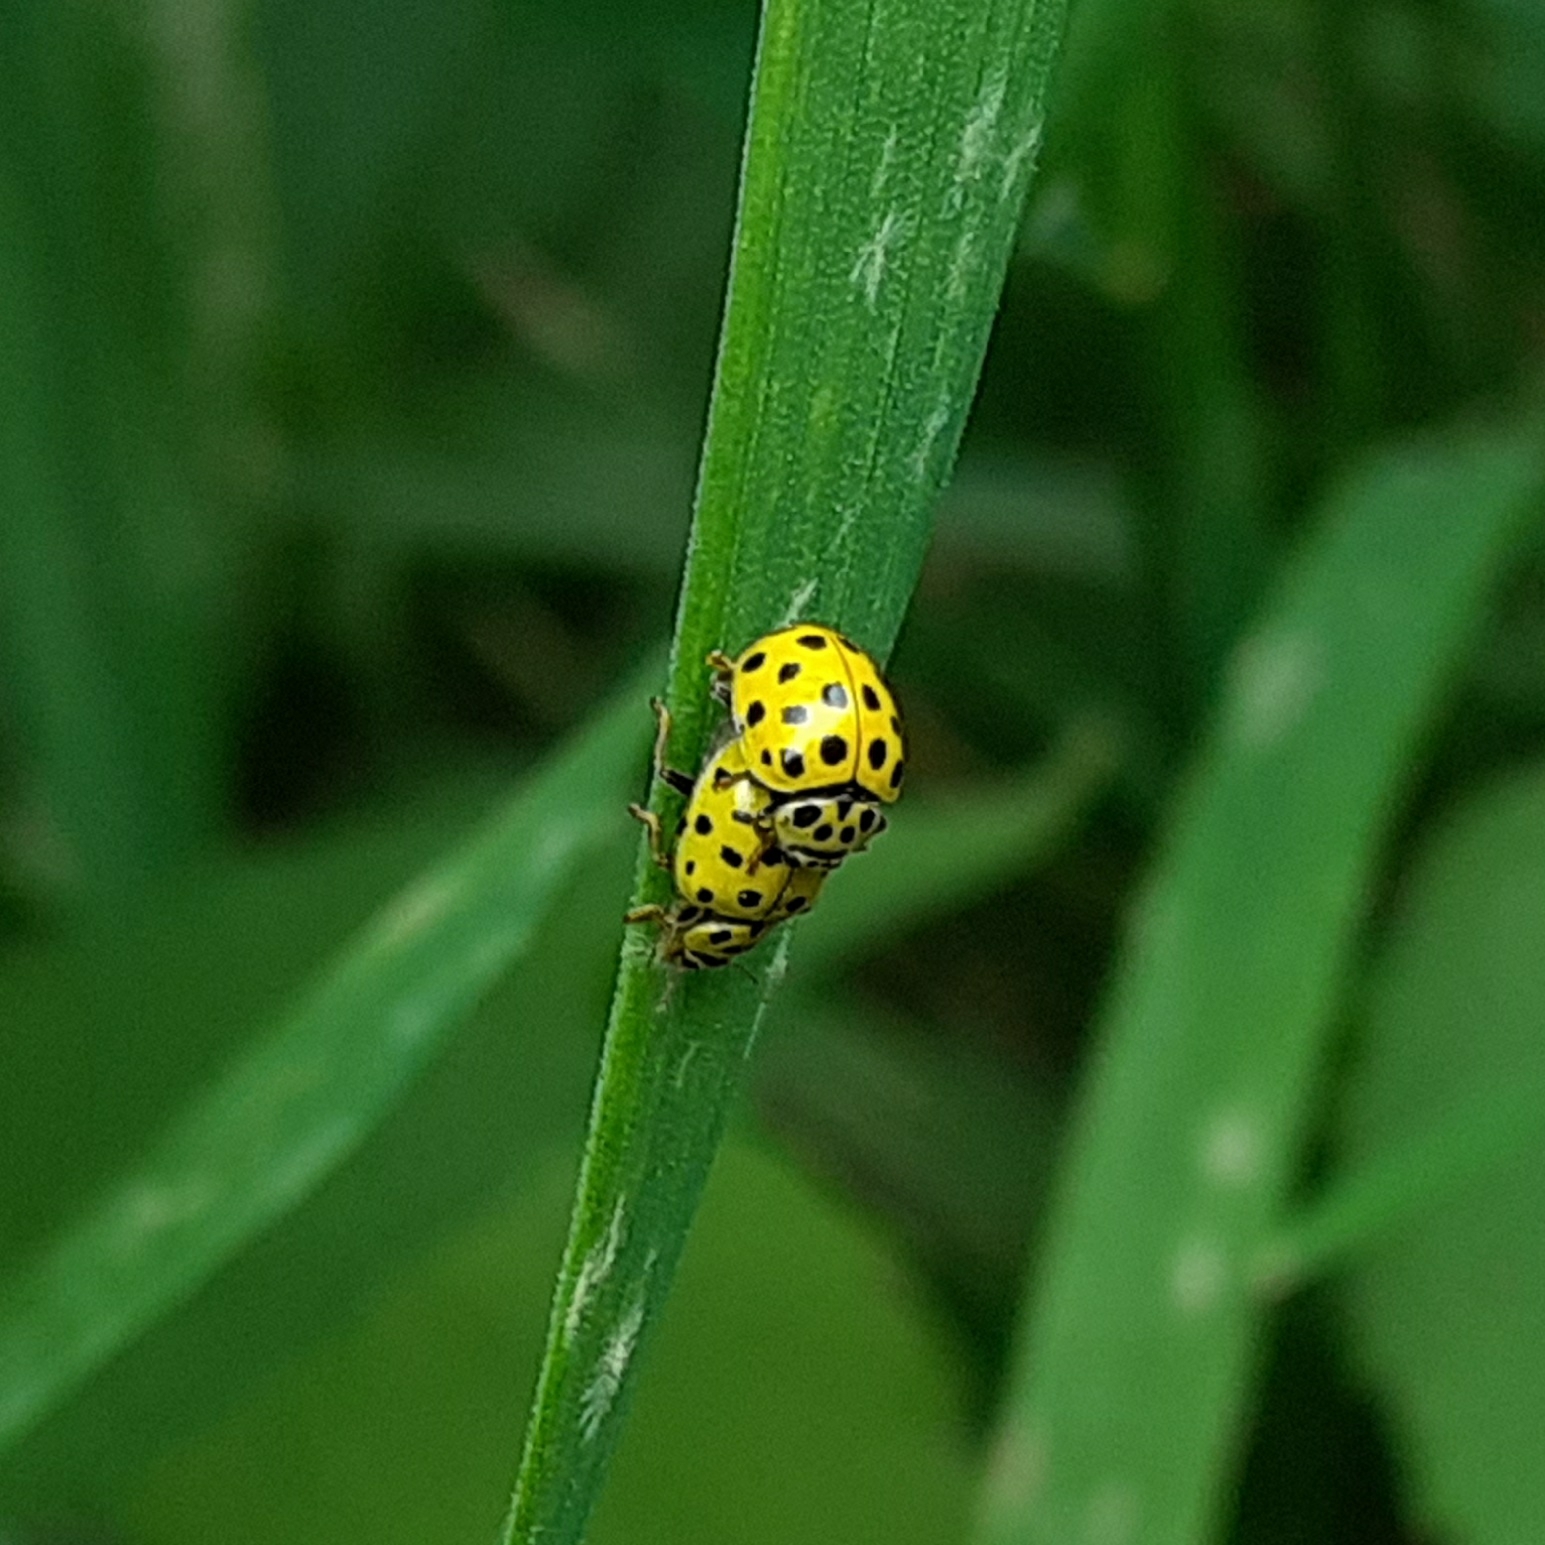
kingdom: Animalia
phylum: Arthropoda
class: Insecta
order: Coleoptera
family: Coccinellidae
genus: Psyllobora
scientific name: Psyllobora vigintiduopunctata
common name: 22-spot ladybird
